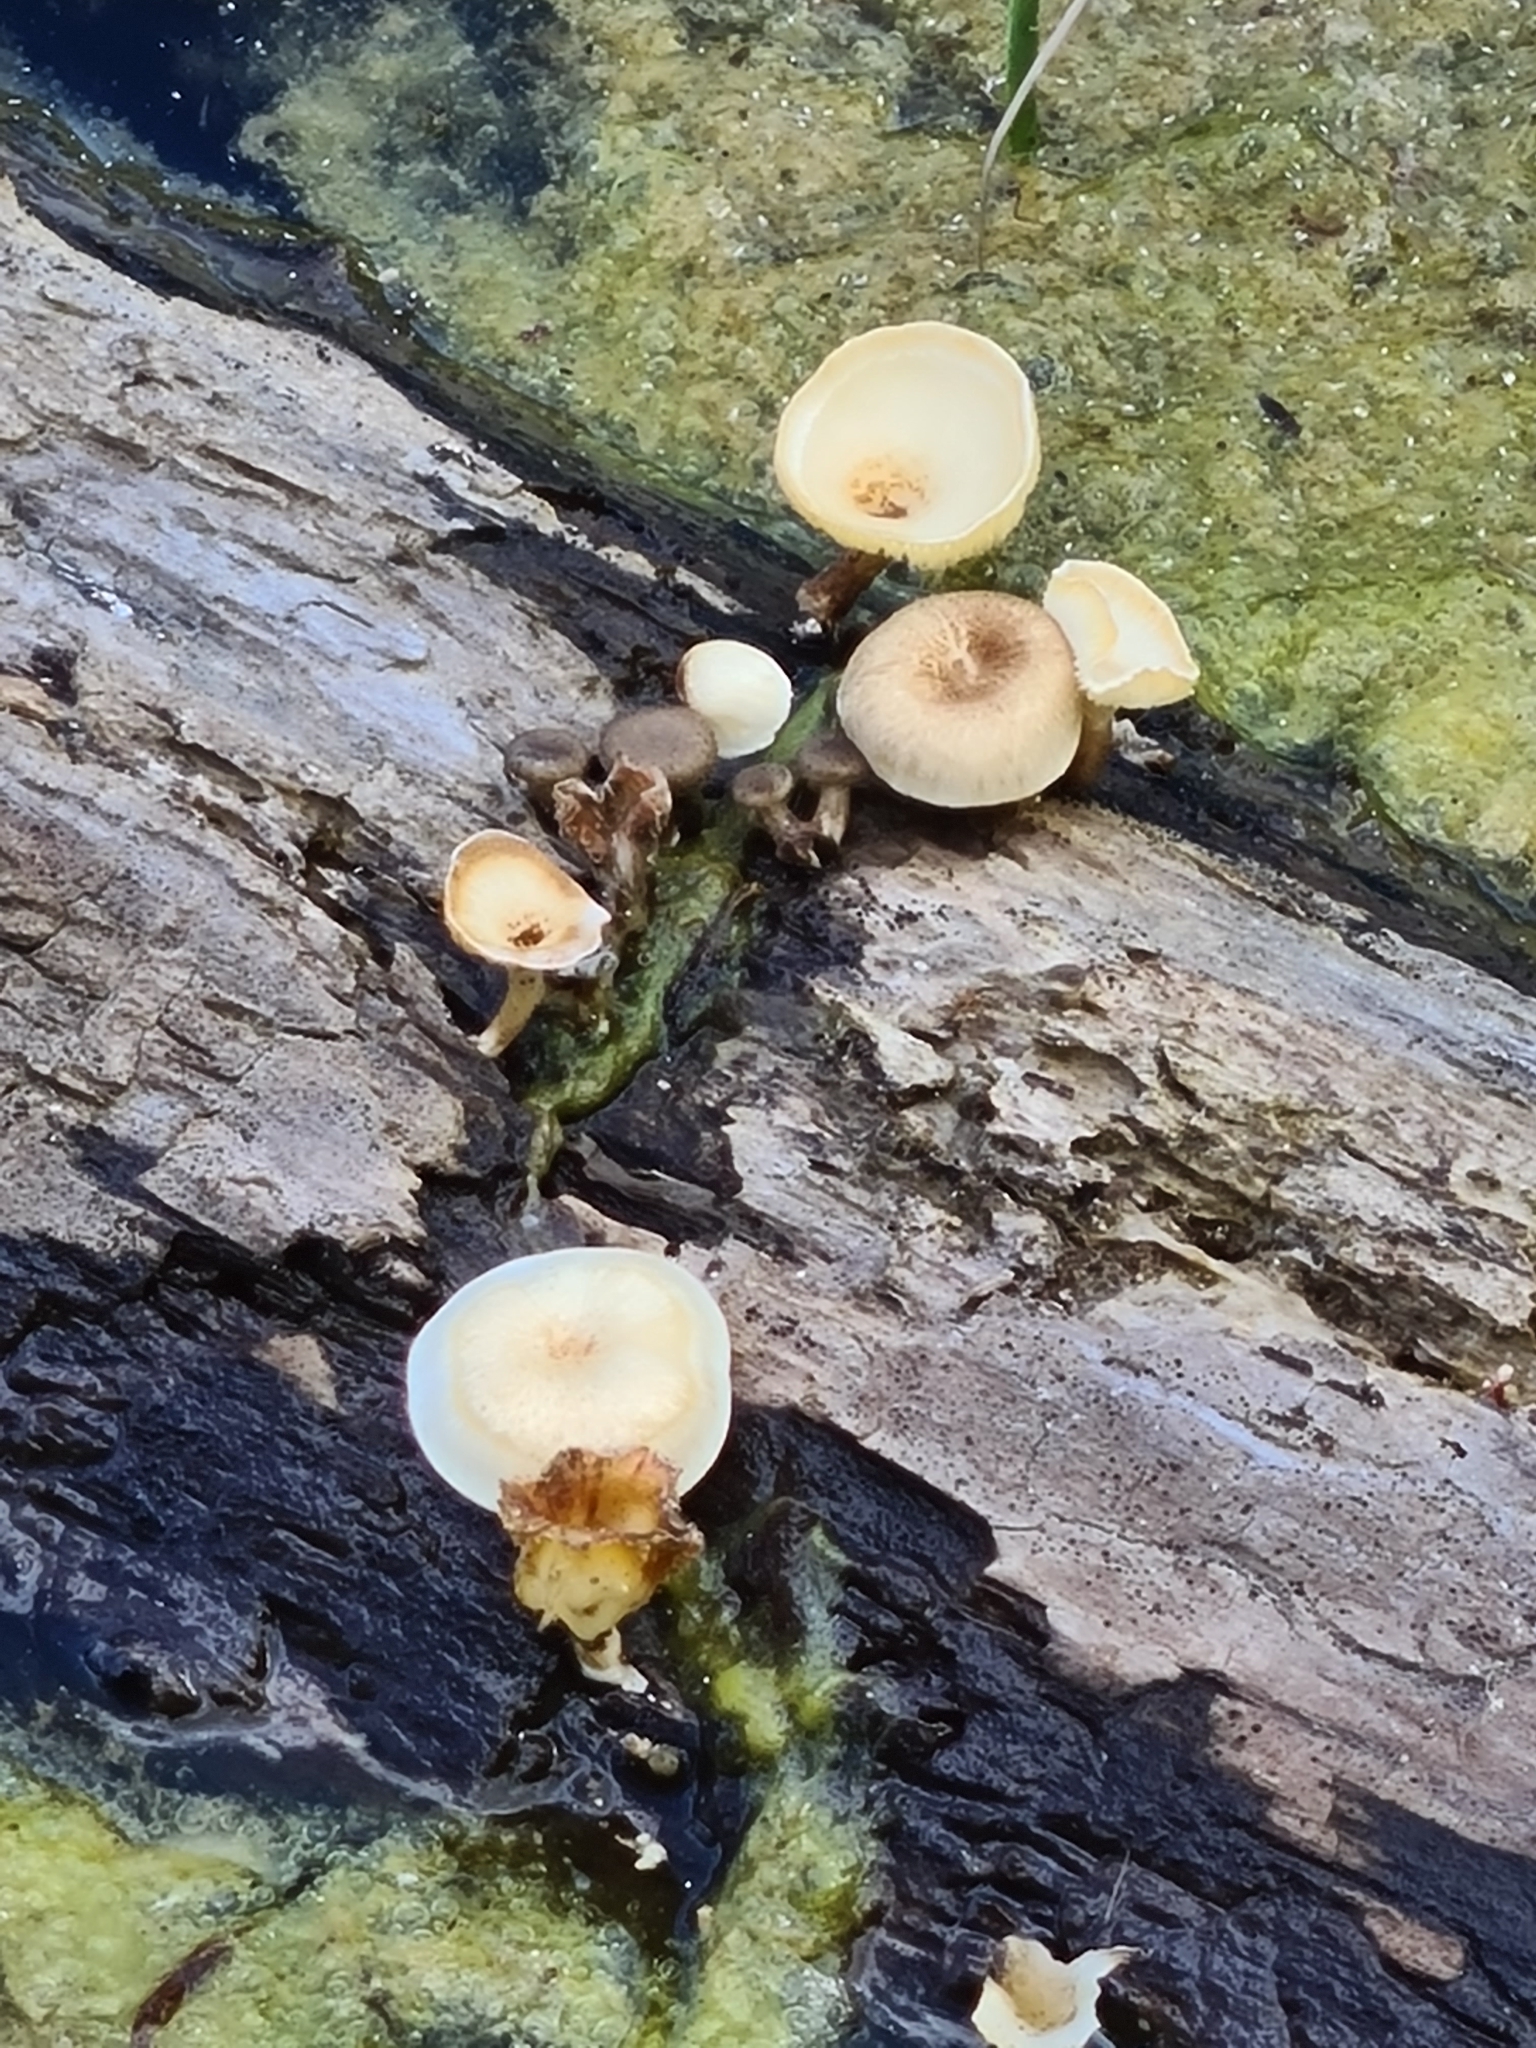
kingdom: Fungi
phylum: Basidiomycota
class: Agaricomycetes
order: Polyporales
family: Polyporaceae
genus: Lentinus
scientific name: Lentinus tigrinus
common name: Tiger sawgill
